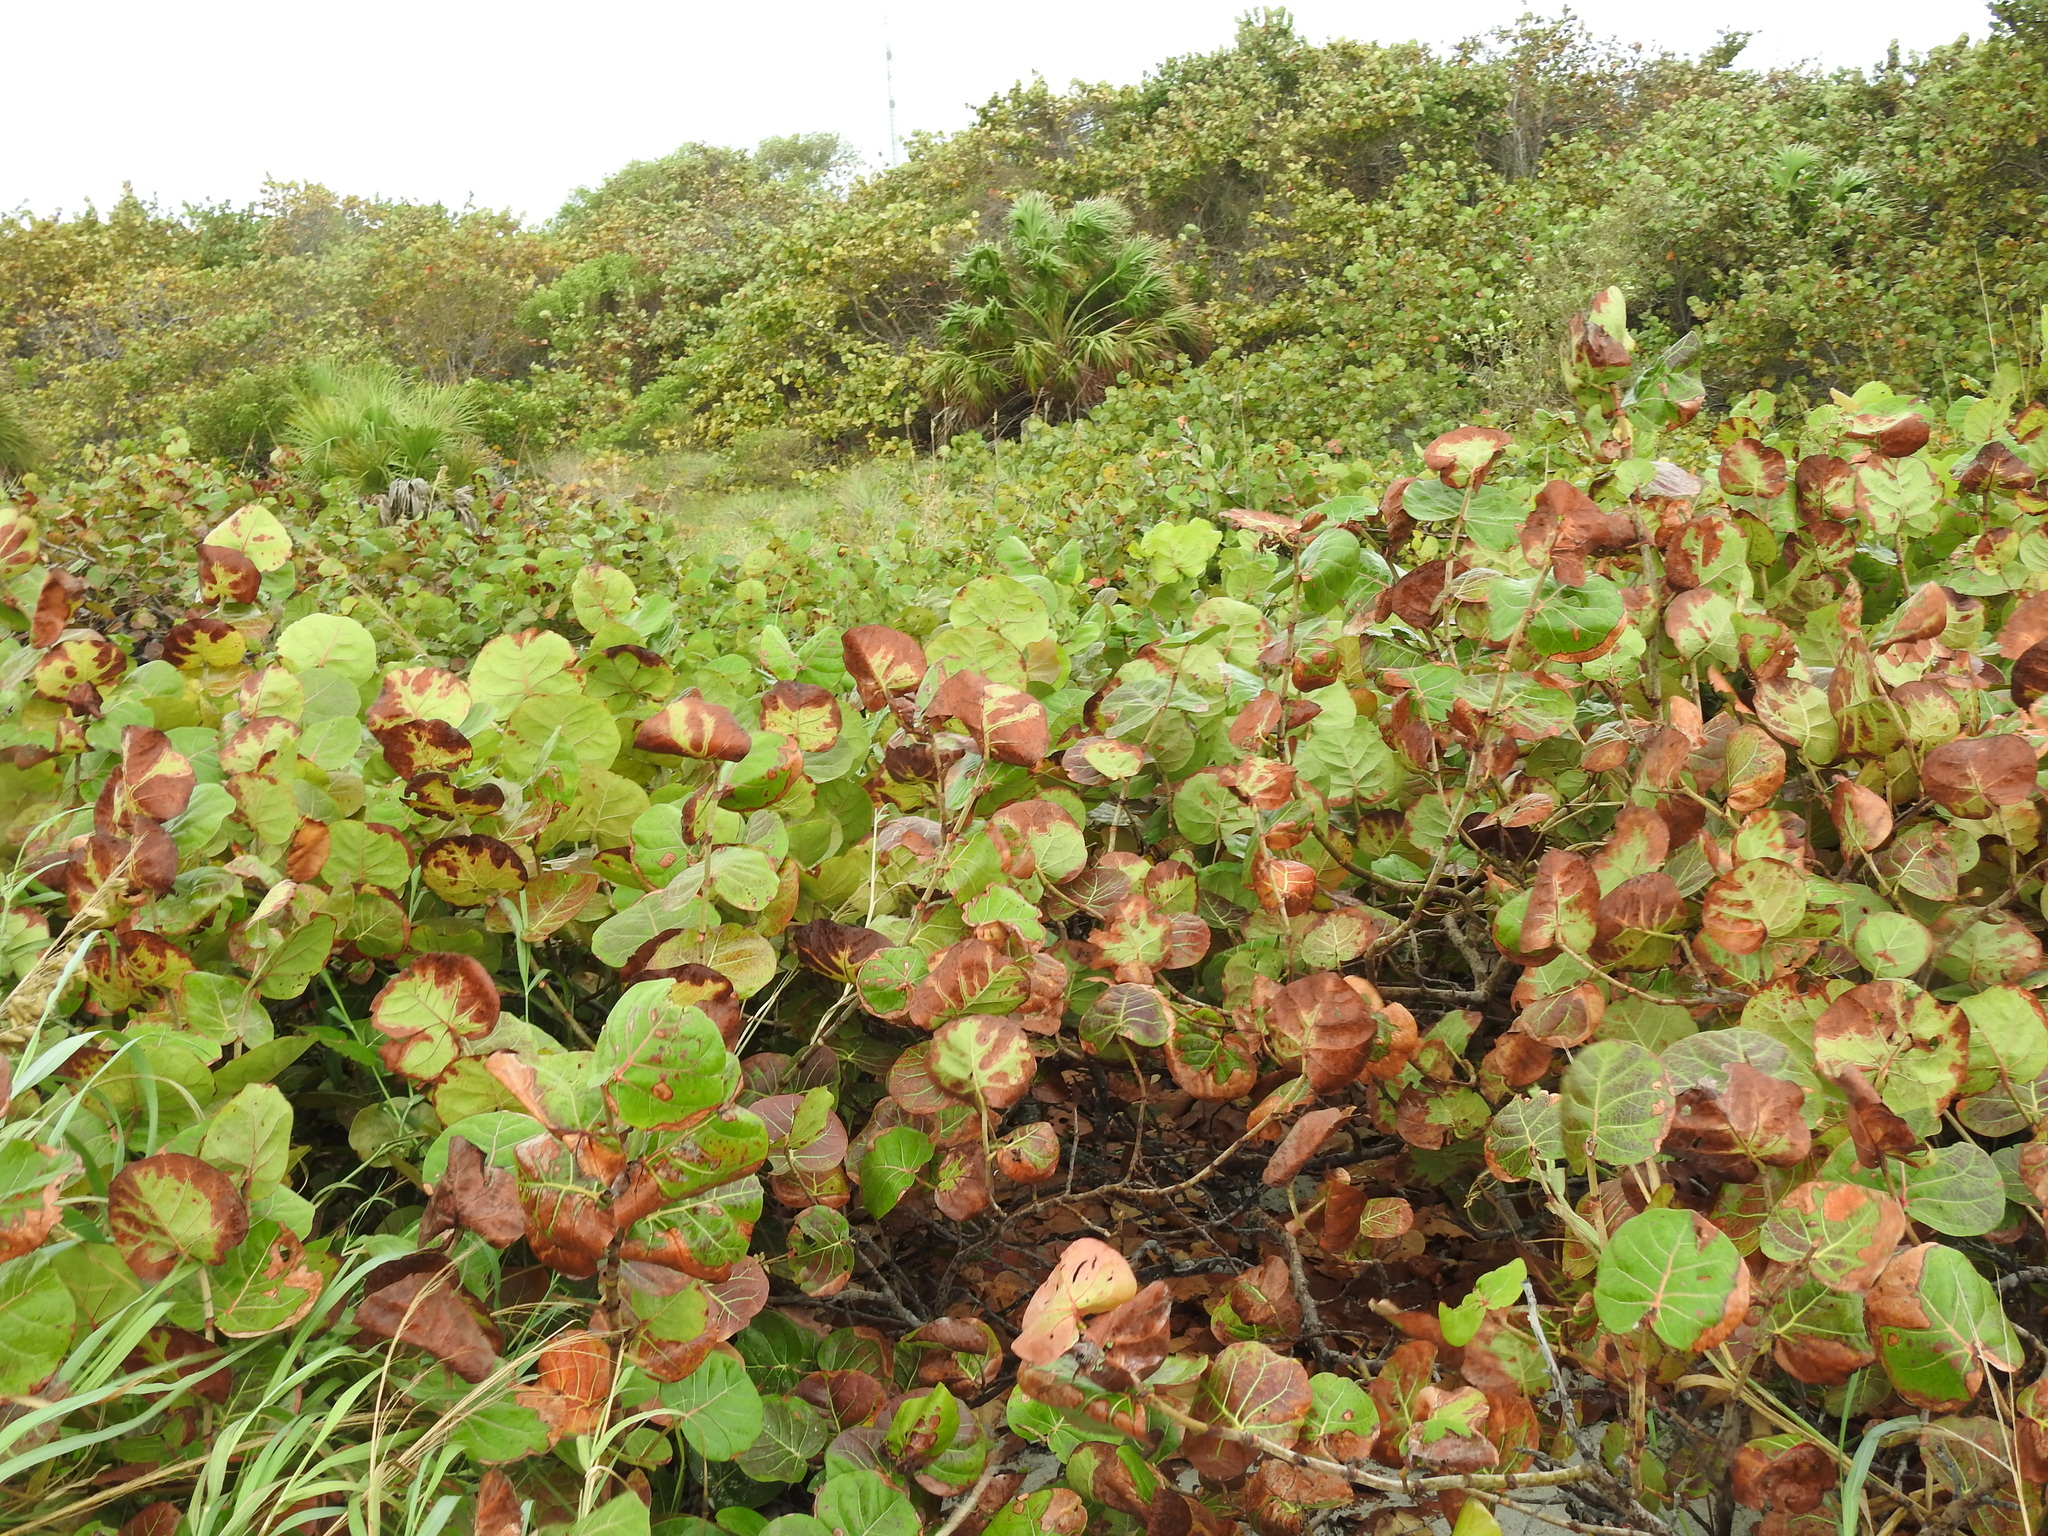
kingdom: Plantae
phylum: Tracheophyta
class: Magnoliopsida
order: Caryophyllales
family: Polygonaceae
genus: Coccoloba
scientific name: Coccoloba uvifera
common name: Seagrape
